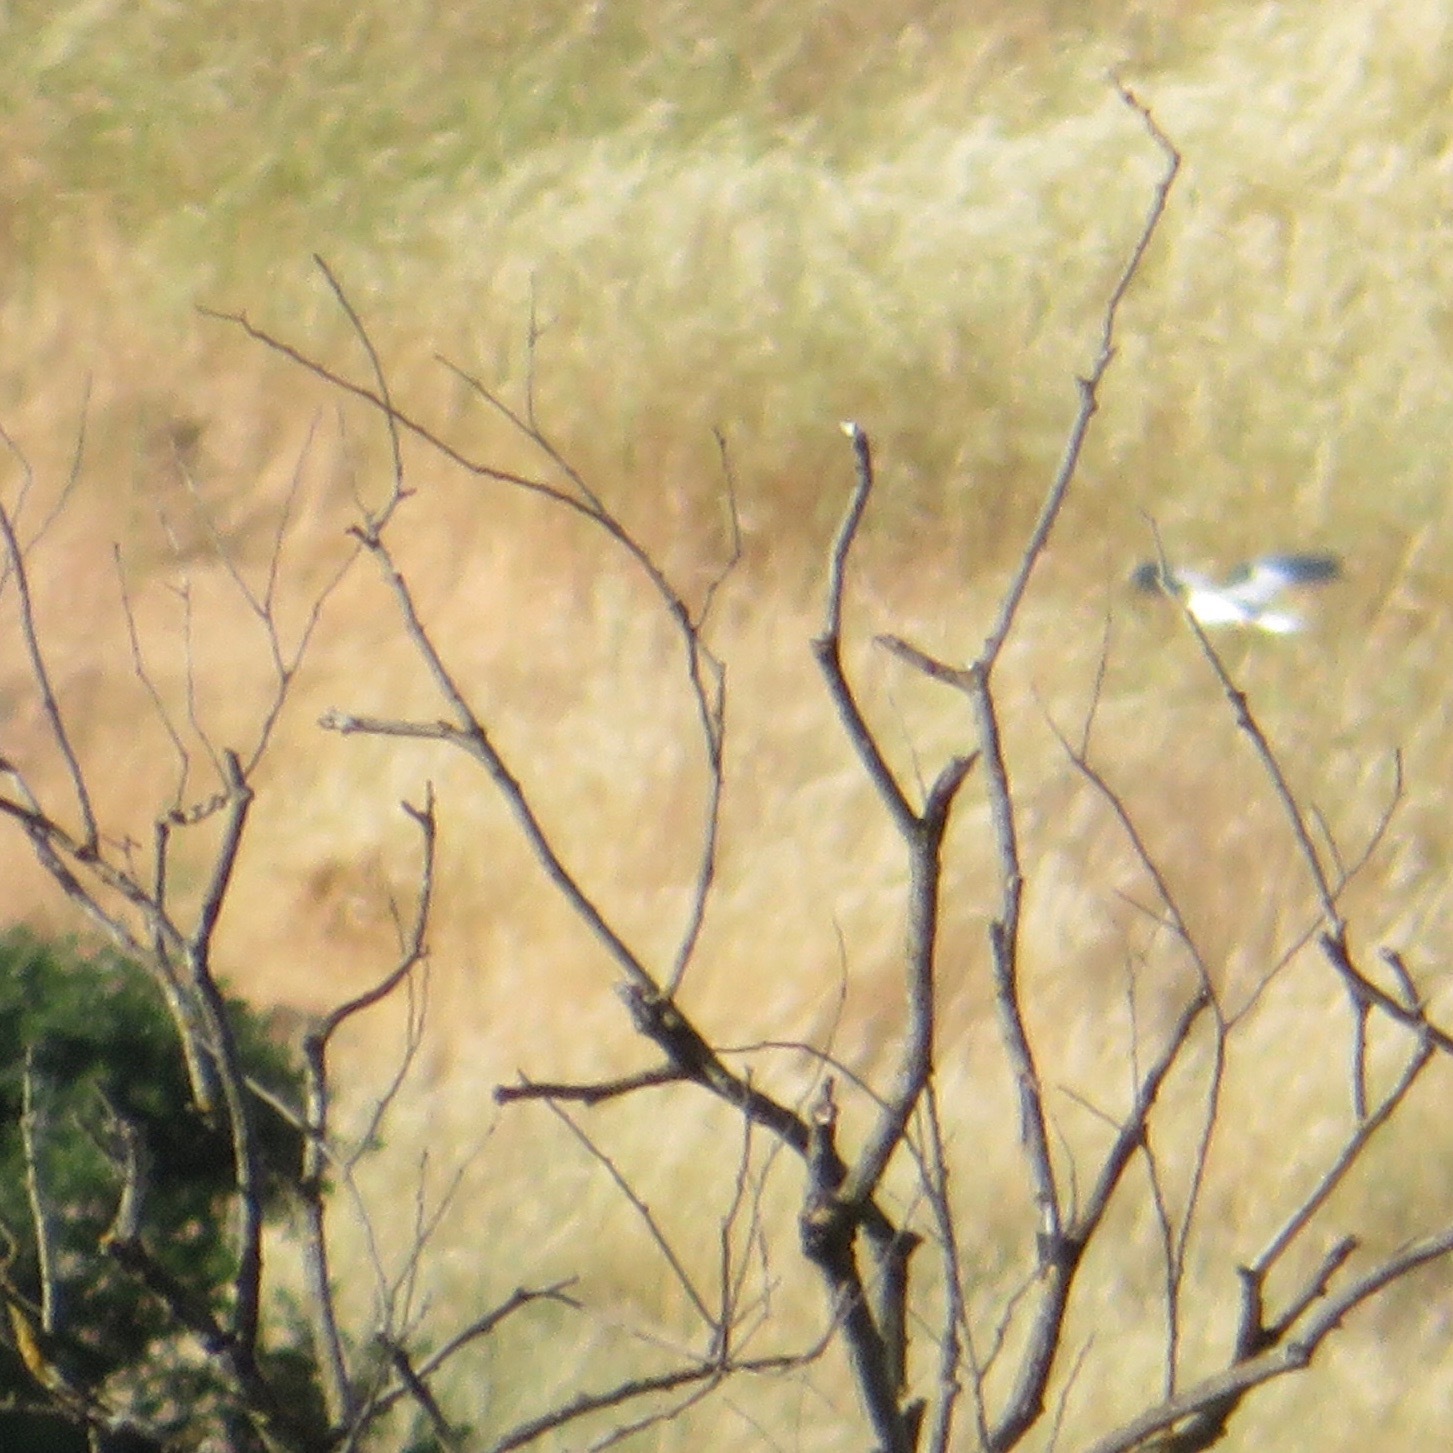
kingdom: Animalia
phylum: Chordata
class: Aves
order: Accipitriformes
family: Accipitridae
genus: Elanus
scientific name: Elanus leucurus
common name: White-tailed kite
